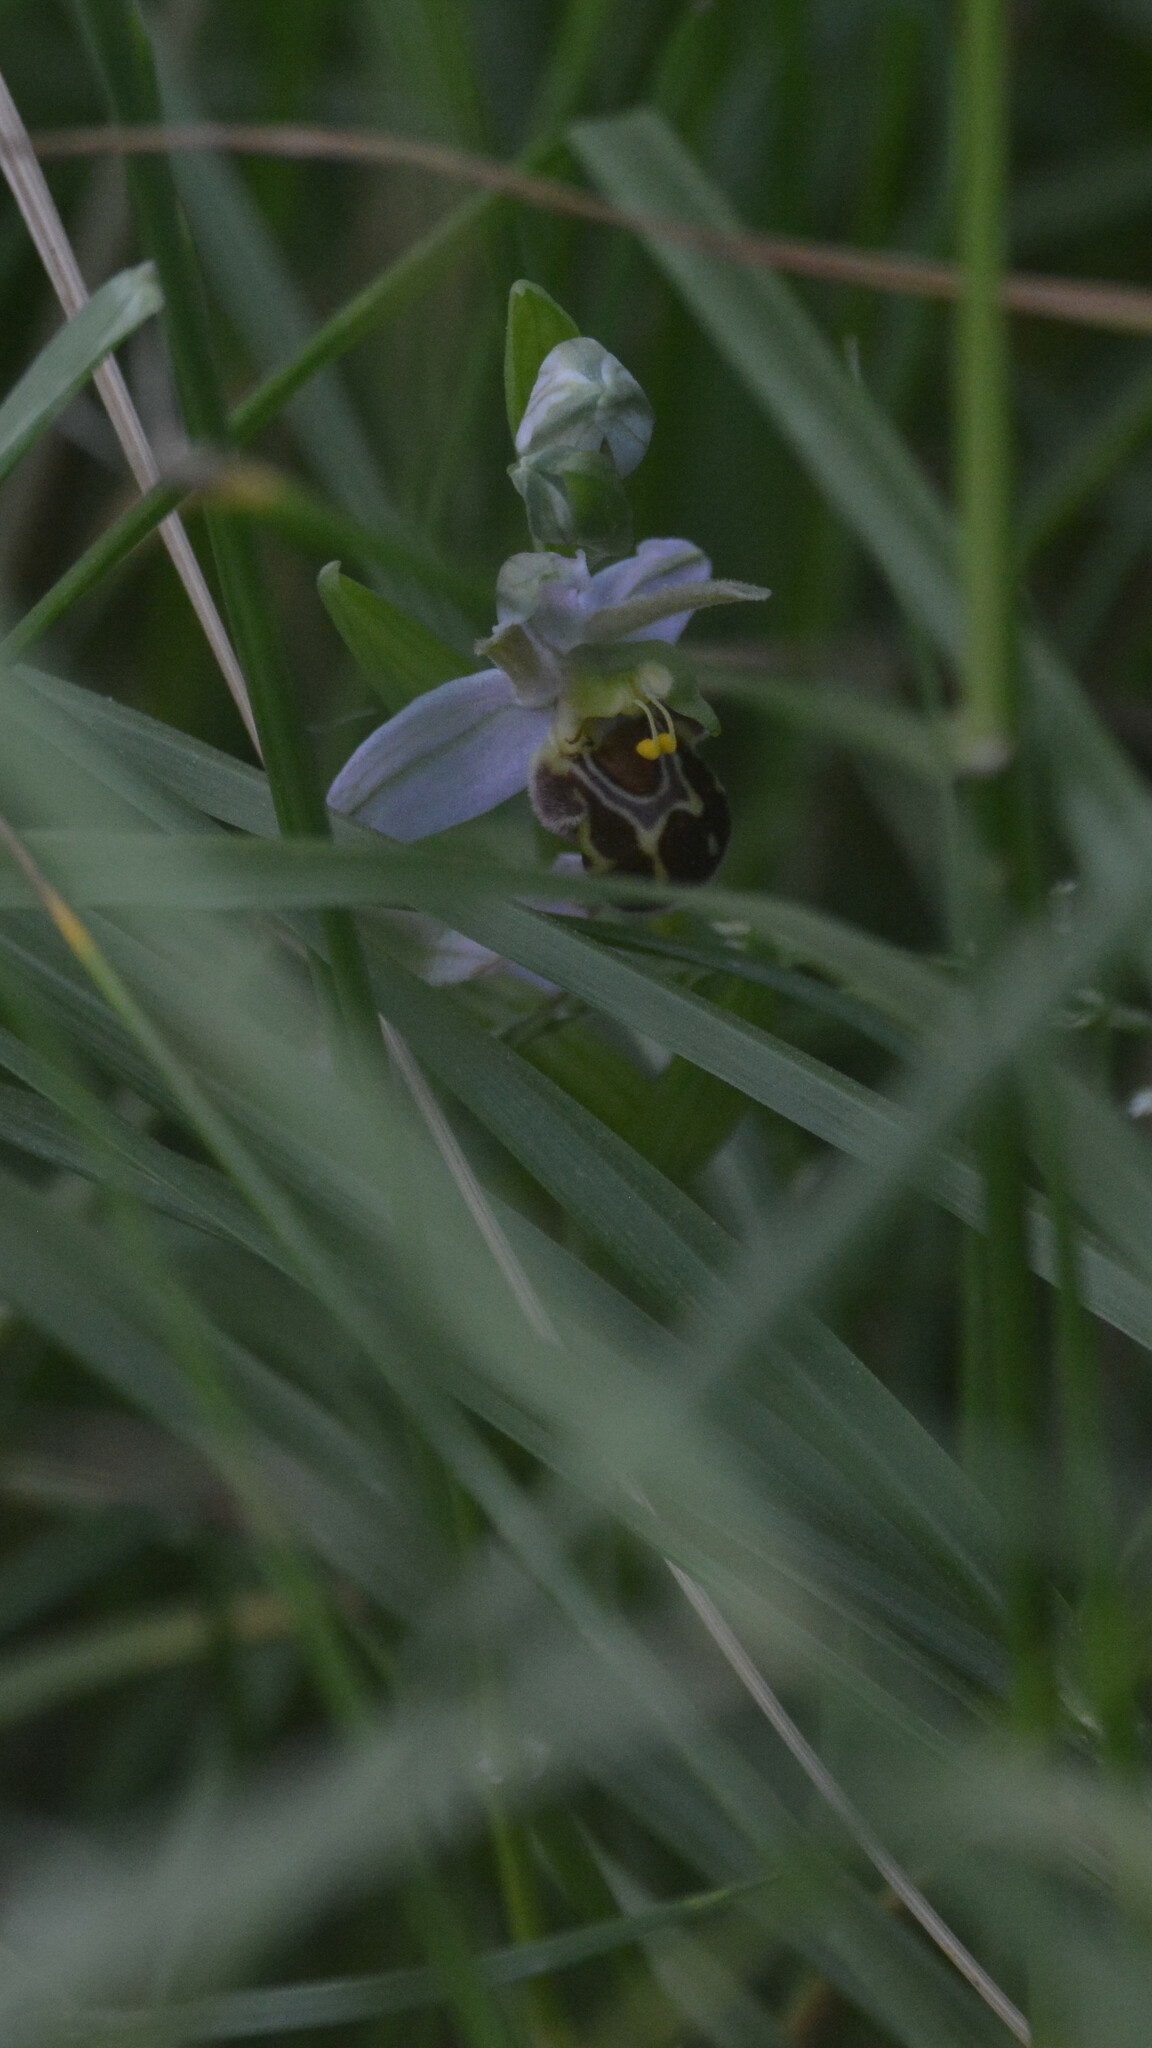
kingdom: Plantae
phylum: Tracheophyta
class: Liliopsida
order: Asparagales
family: Orchidaceae
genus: Ophrys
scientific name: Ophrys apifera
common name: Bee orchid
